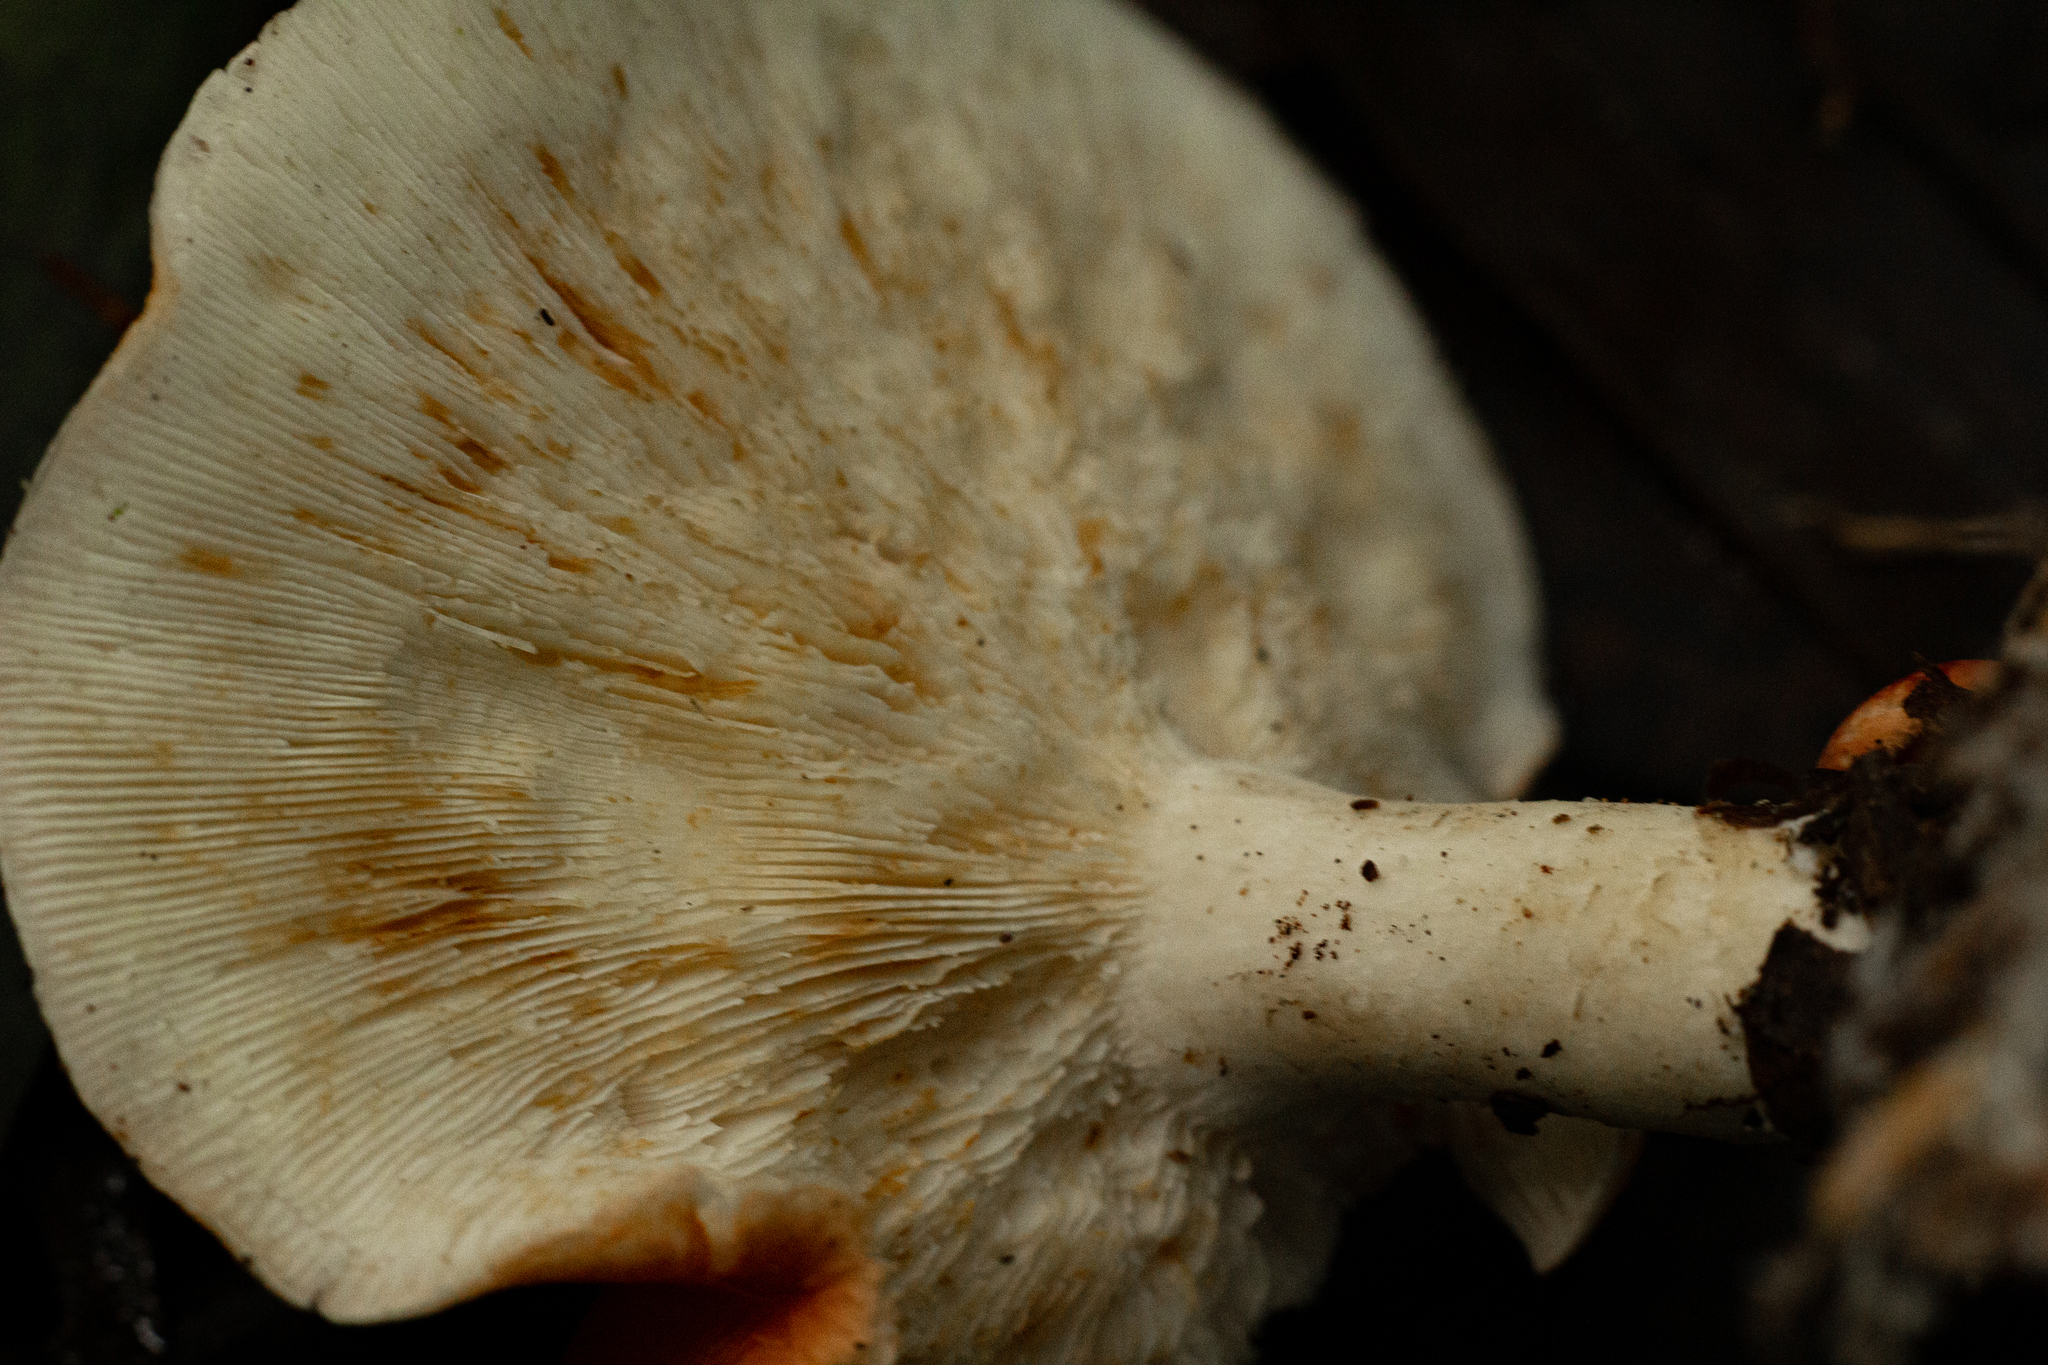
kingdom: Fungi
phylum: Basidiomycota
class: Agaricomycetes
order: Agaricales
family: Tricholomataceae
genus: Leucopaxillus
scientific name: Leucopaxillus gracillimus
